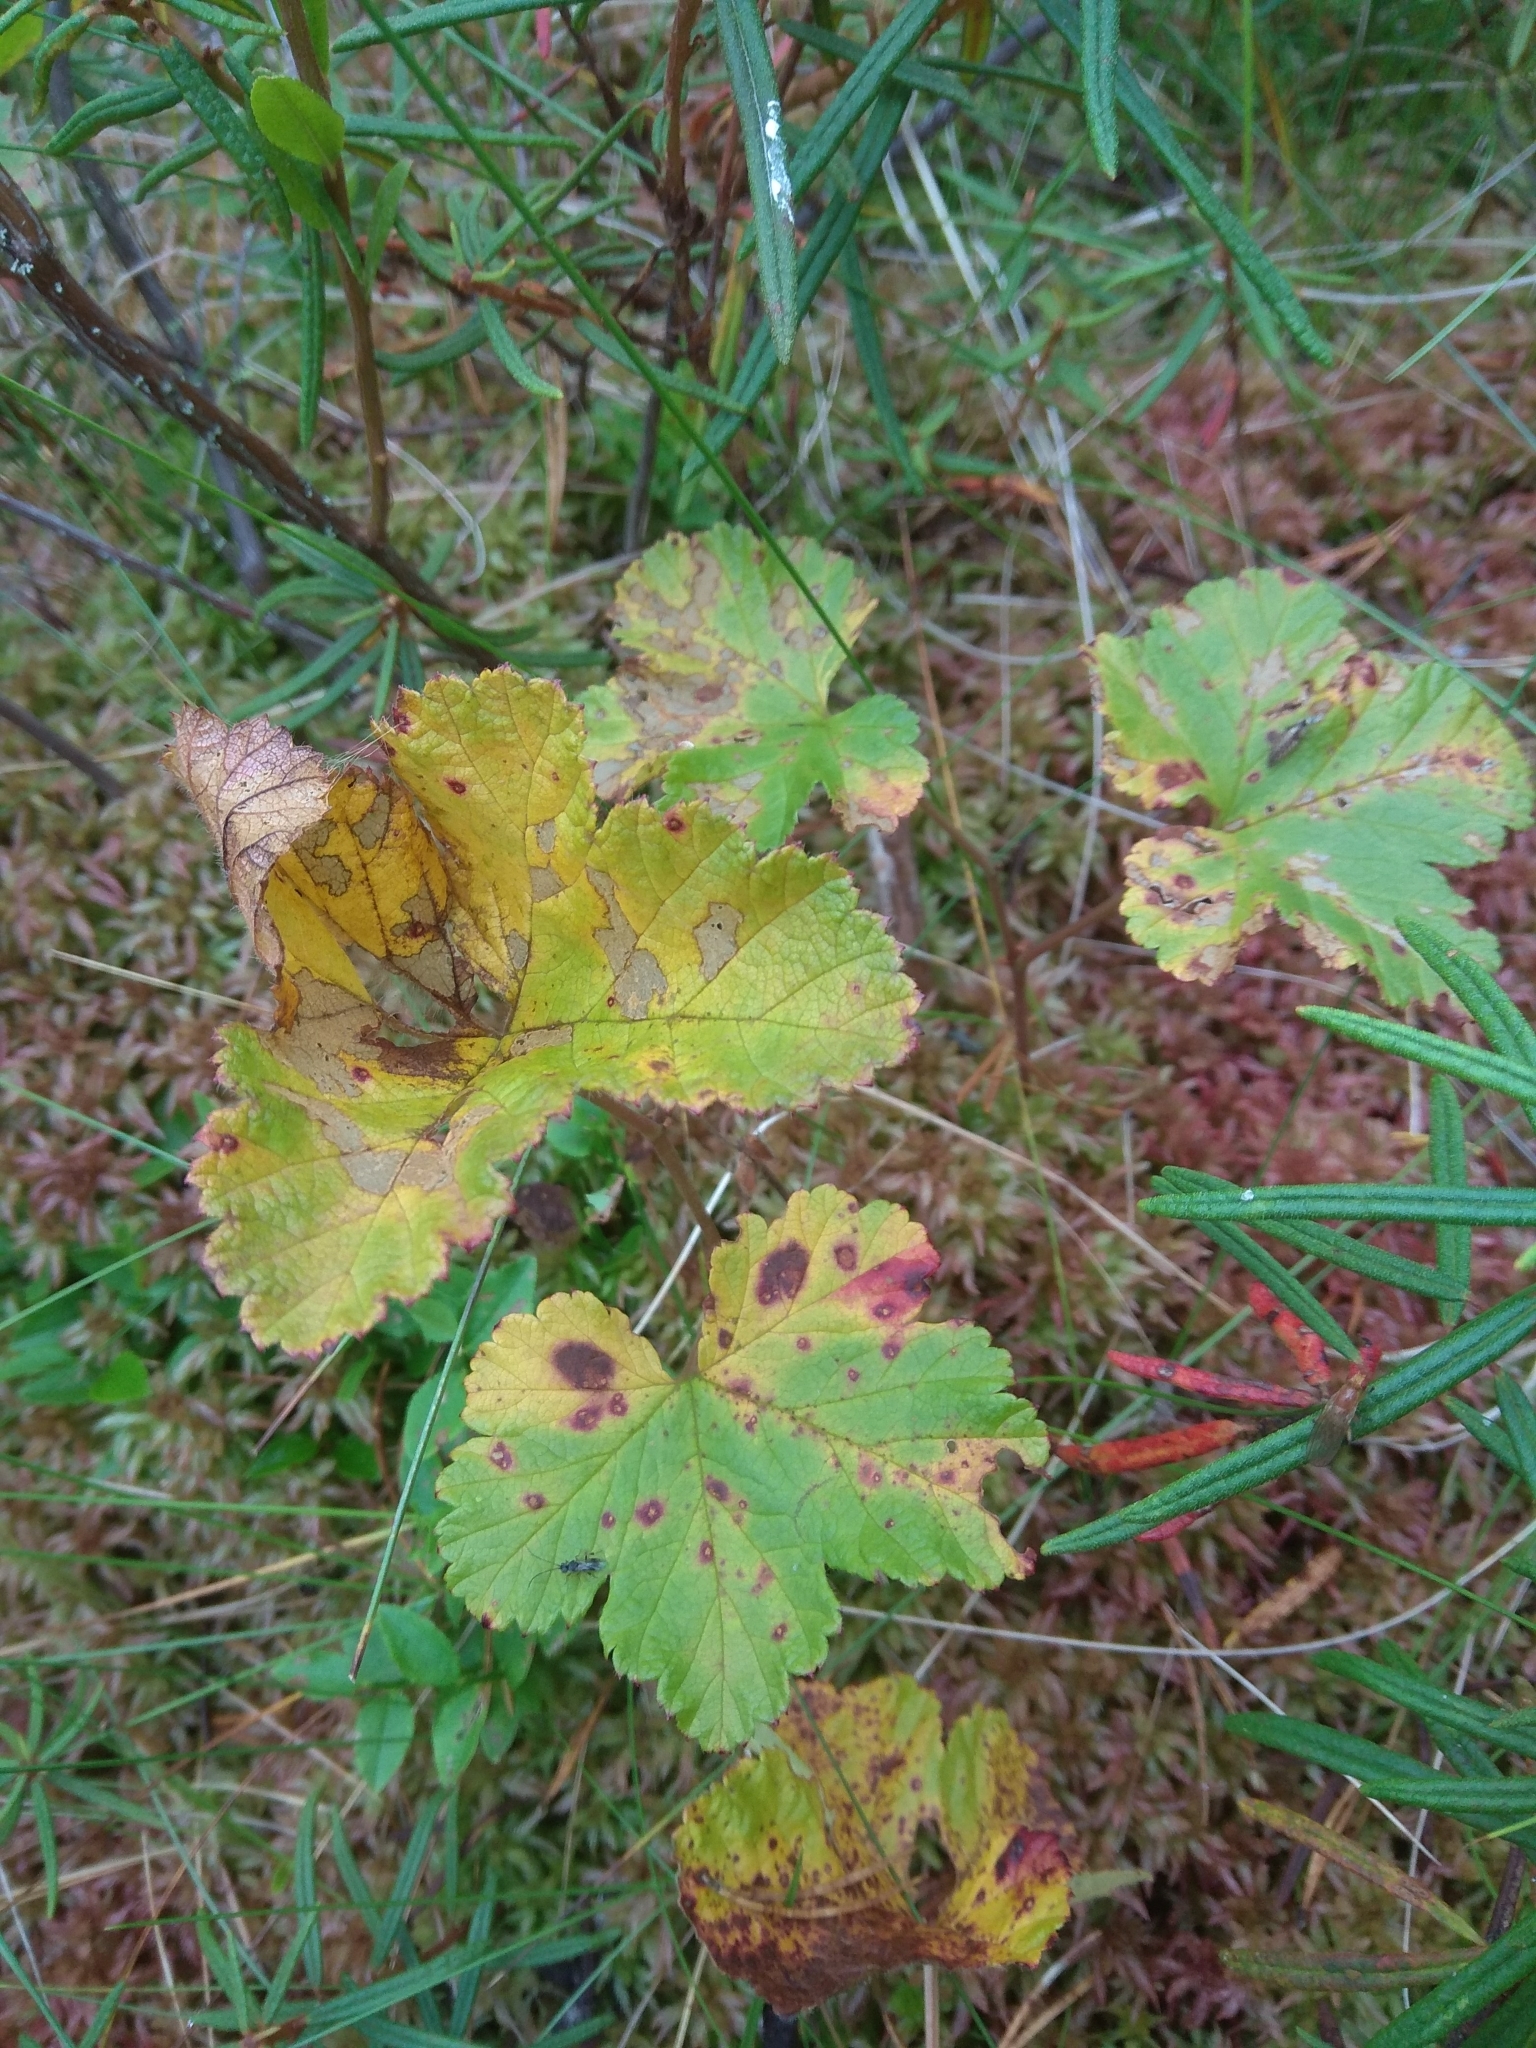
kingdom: Plantae
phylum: Tracheophyta
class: Magnoliopsida
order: Rosales
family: Rosaceae
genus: Rubus
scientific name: Rubus chamaemorus
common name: Cloudberry
